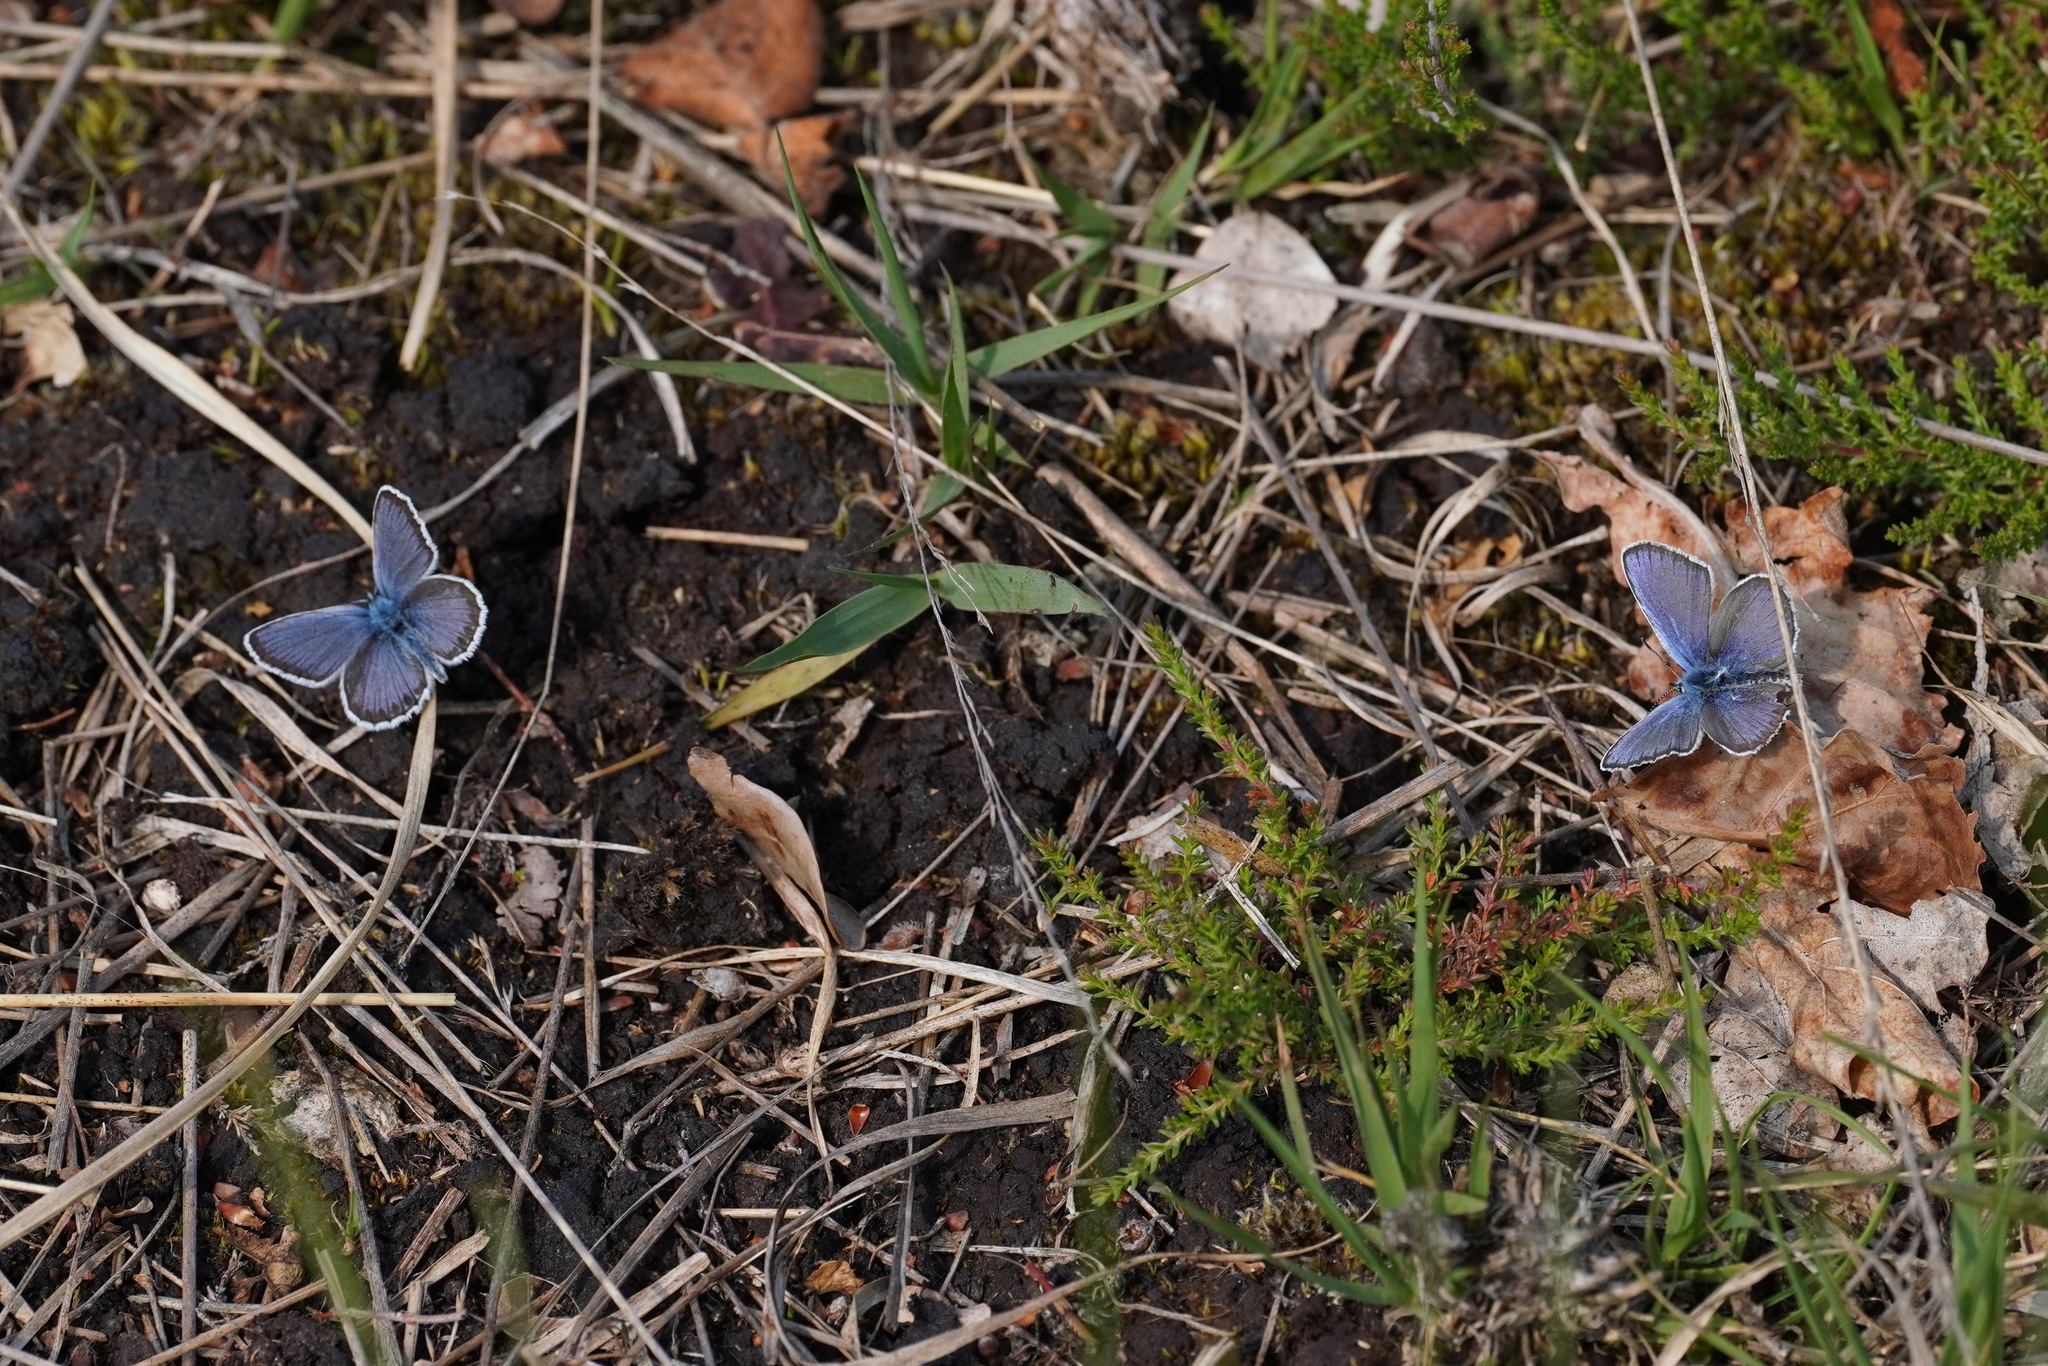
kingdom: Animalia
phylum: Arthropoda
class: Insecta
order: Lepidoptera
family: Lycaenidae
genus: Plebejus
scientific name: Plebejus argus
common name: Silver-studded blue
